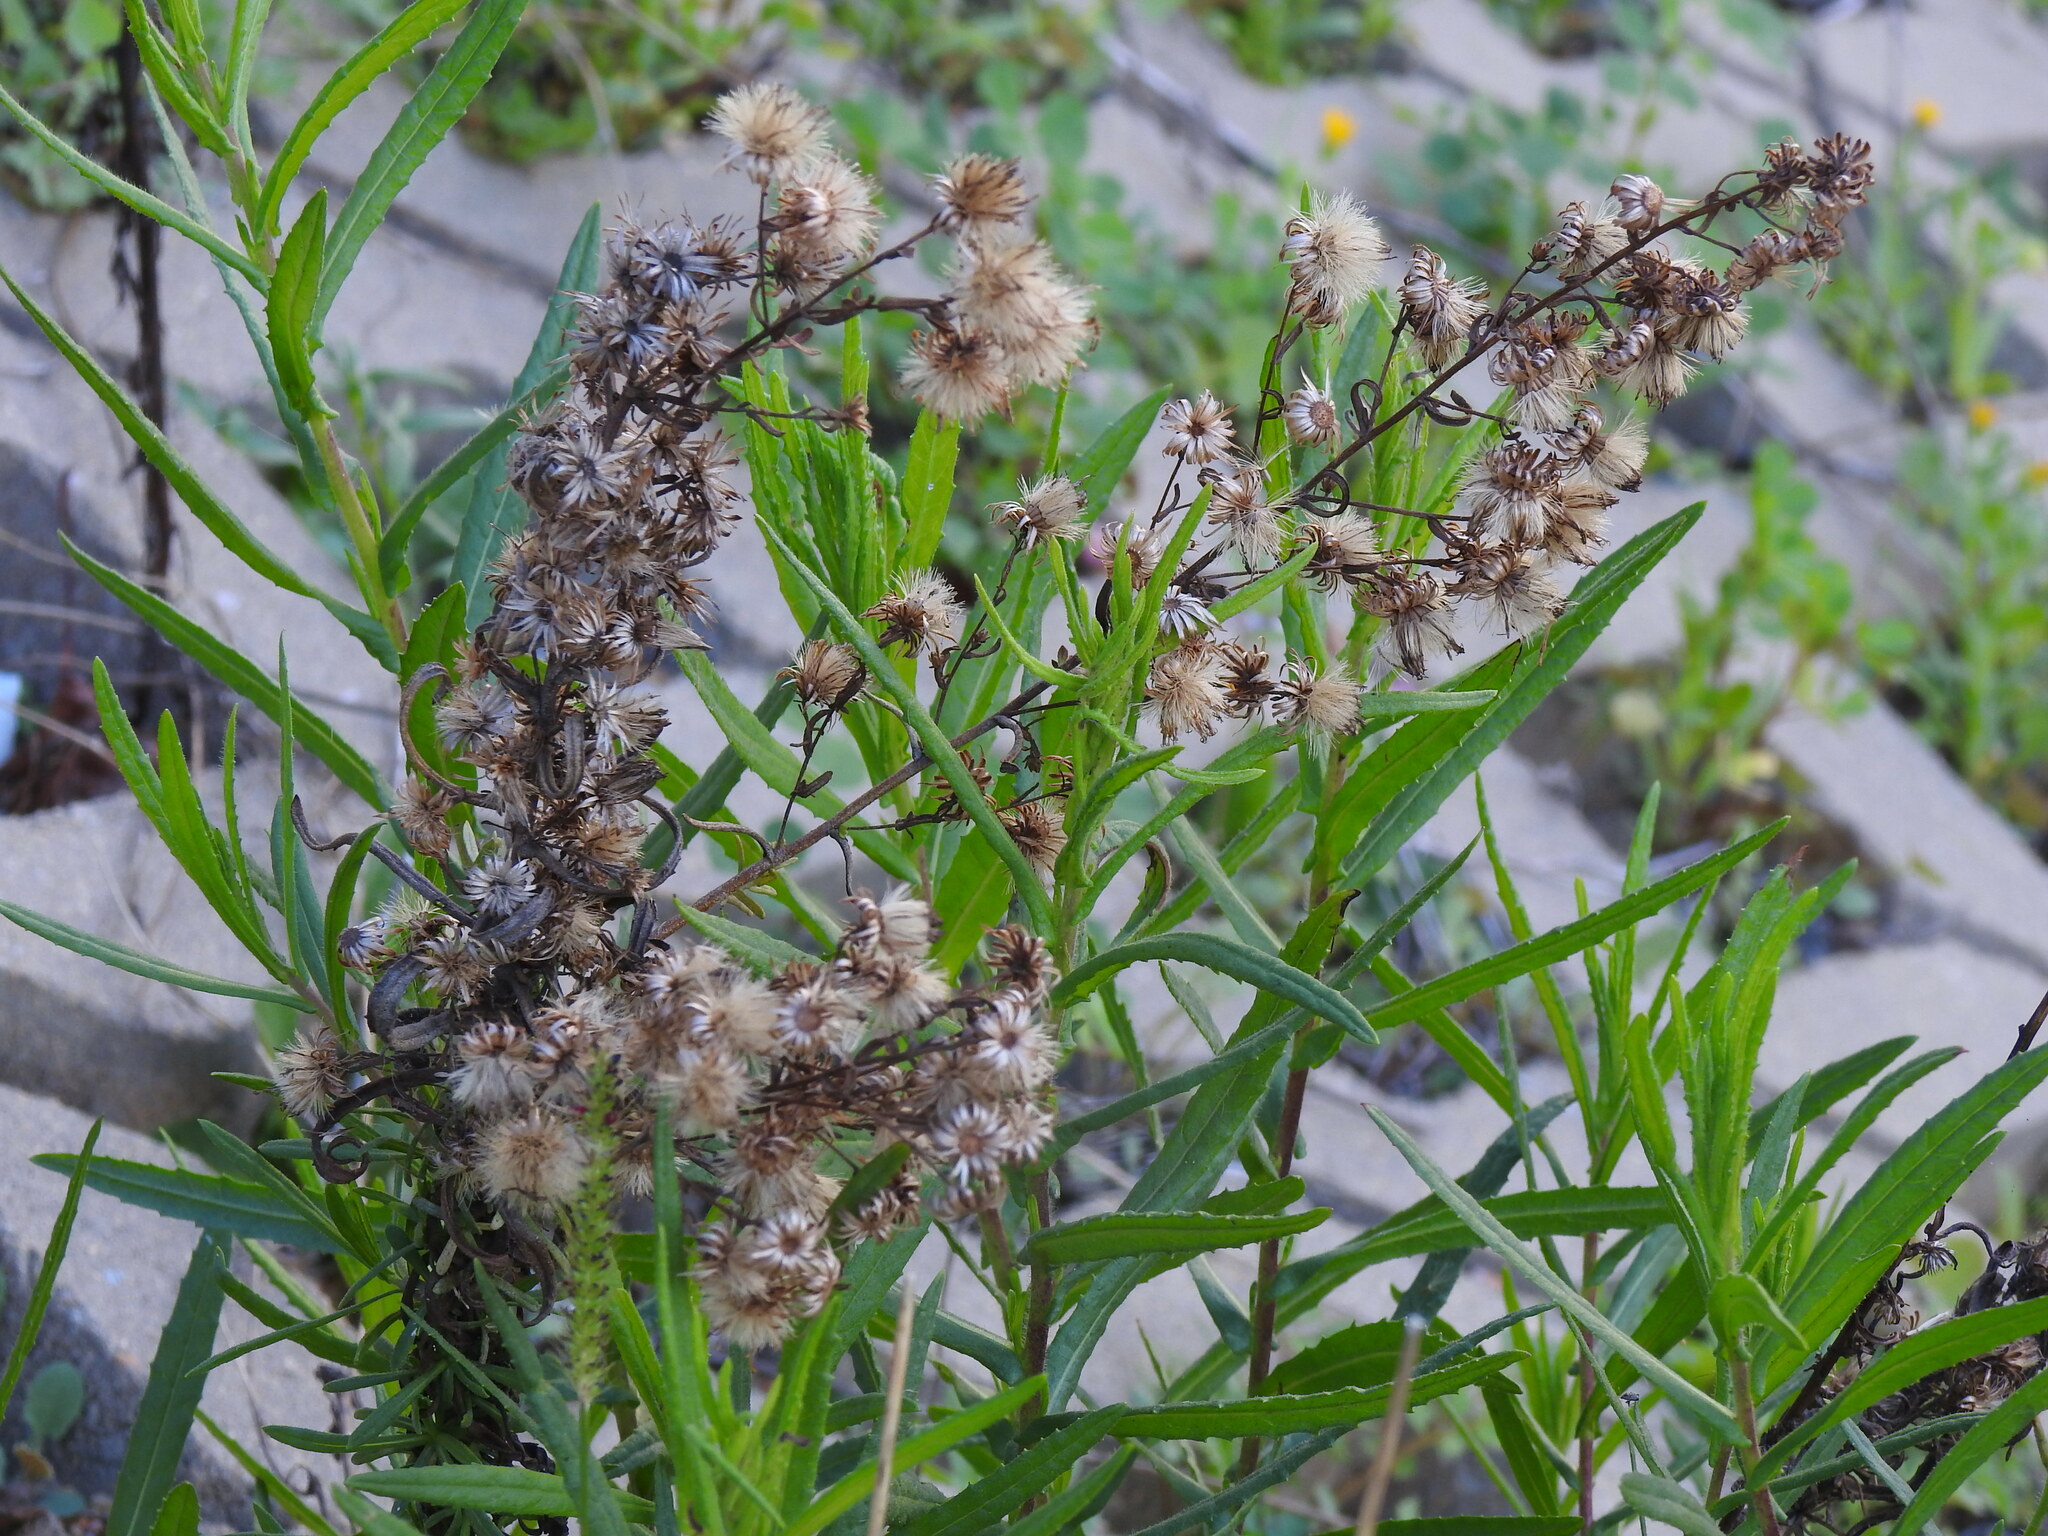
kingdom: Plantae
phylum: Tracheophyta
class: Magnoliopsida
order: Asterales
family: Asteraceae
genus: Dittrichia
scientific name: Dittrichia viscosa
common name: Woody fleabane
